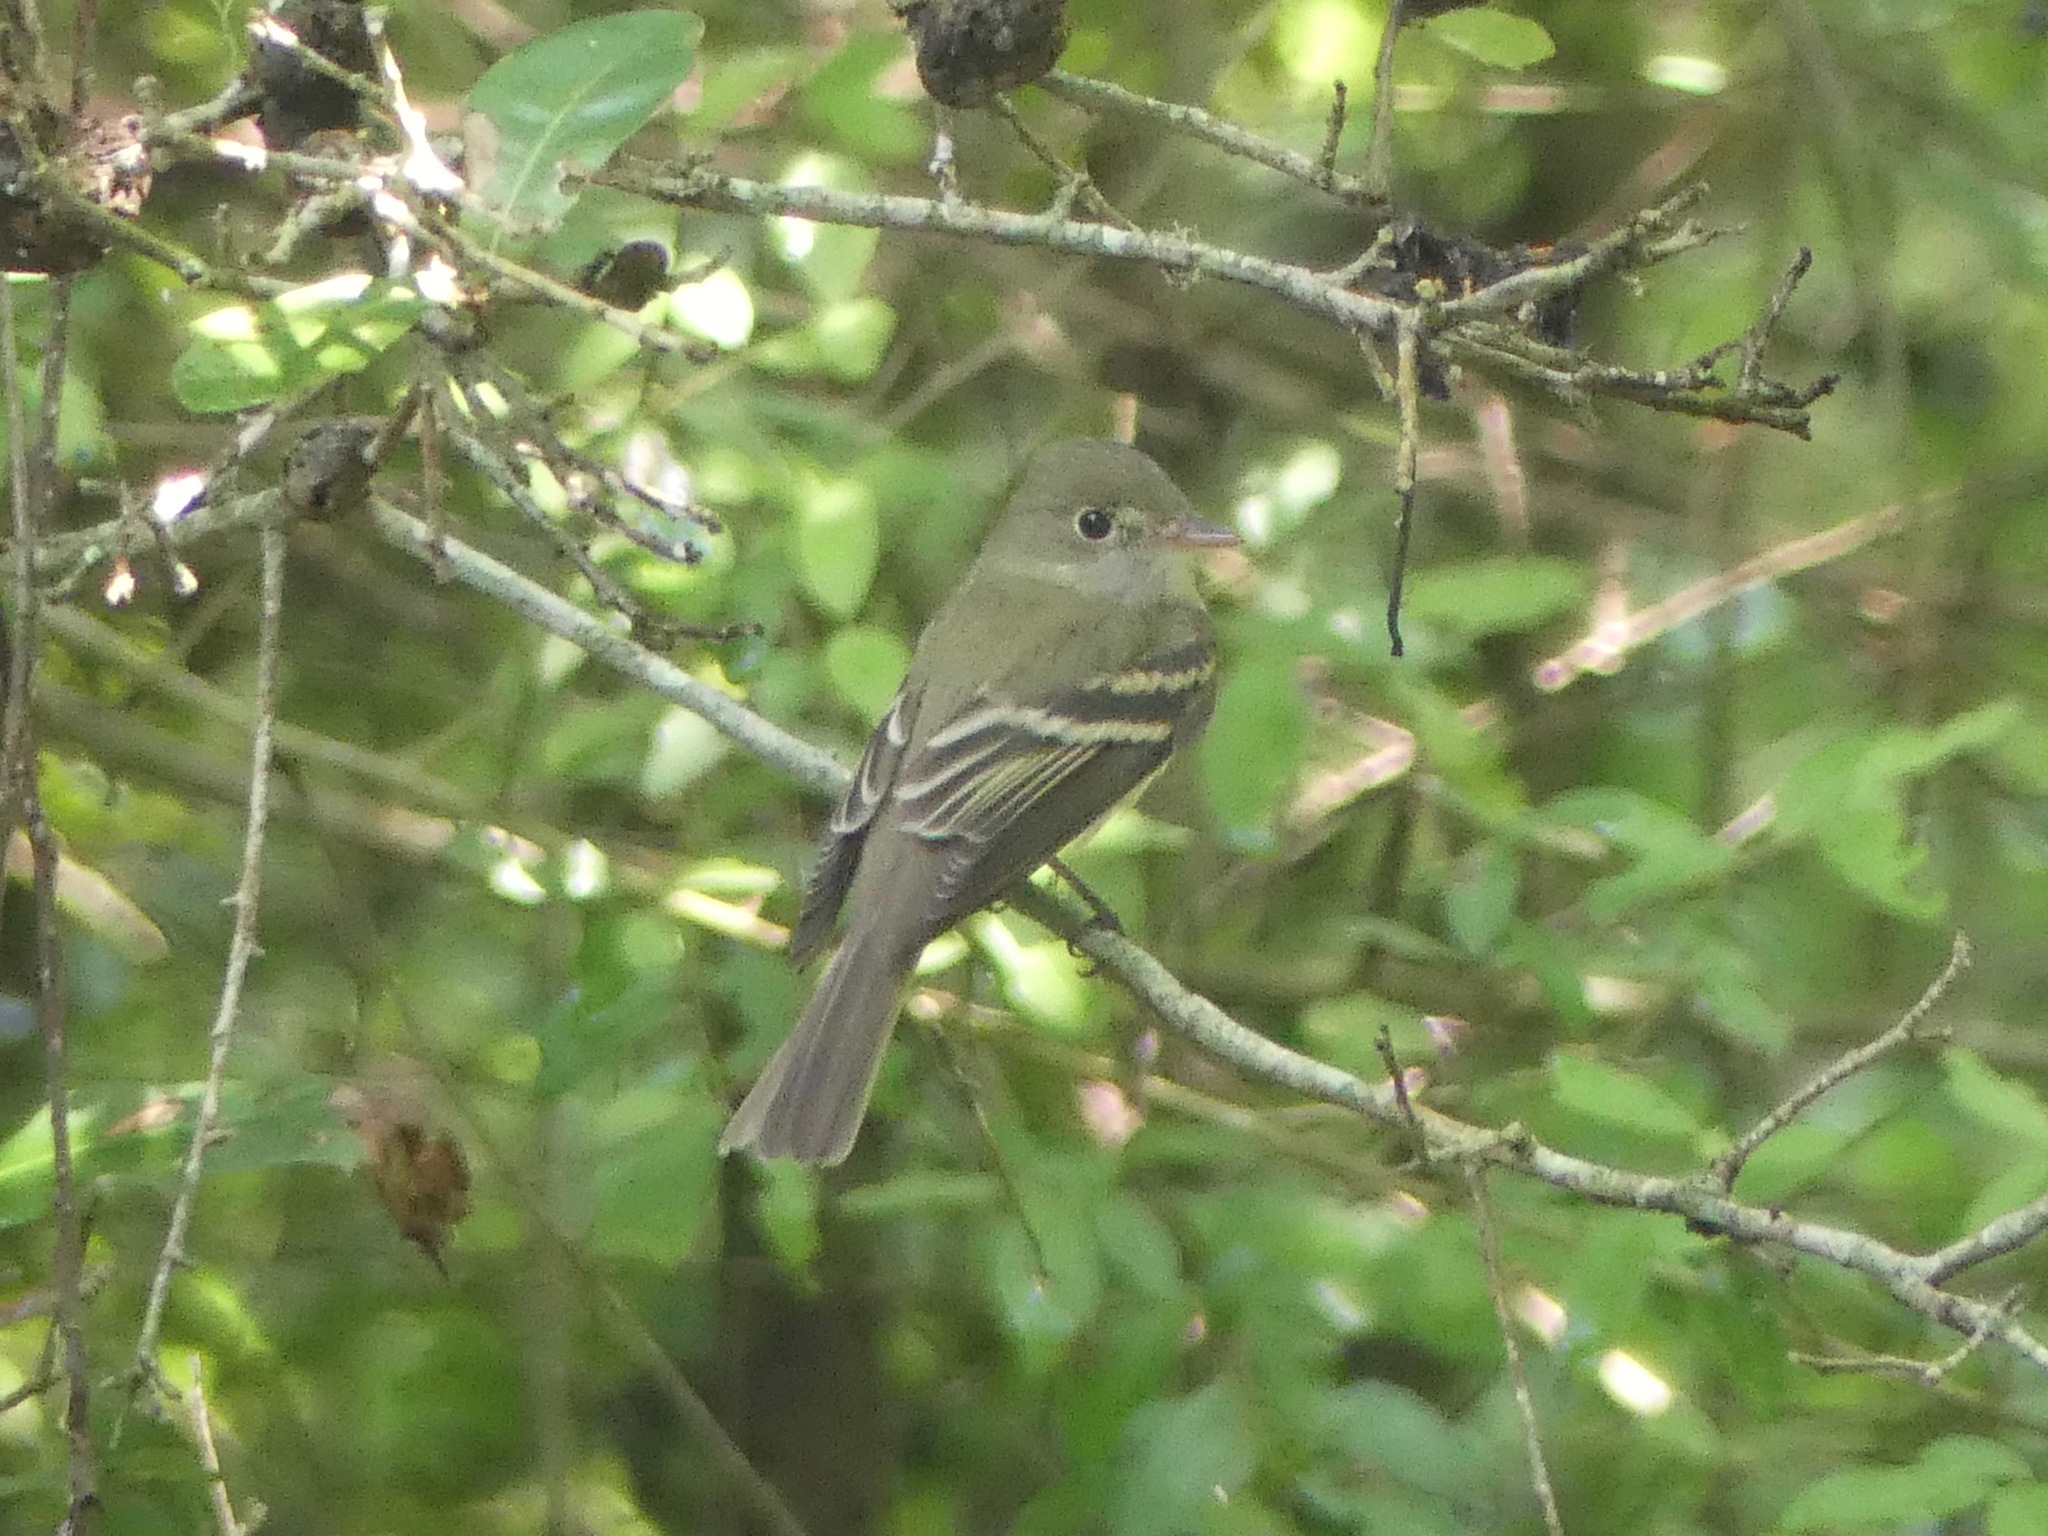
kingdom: Animalia
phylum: Chordata
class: Aves
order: Passeriformes
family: Tyrannidae
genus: Empidonax
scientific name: Empidonax virescens
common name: Acadian flycatcher
